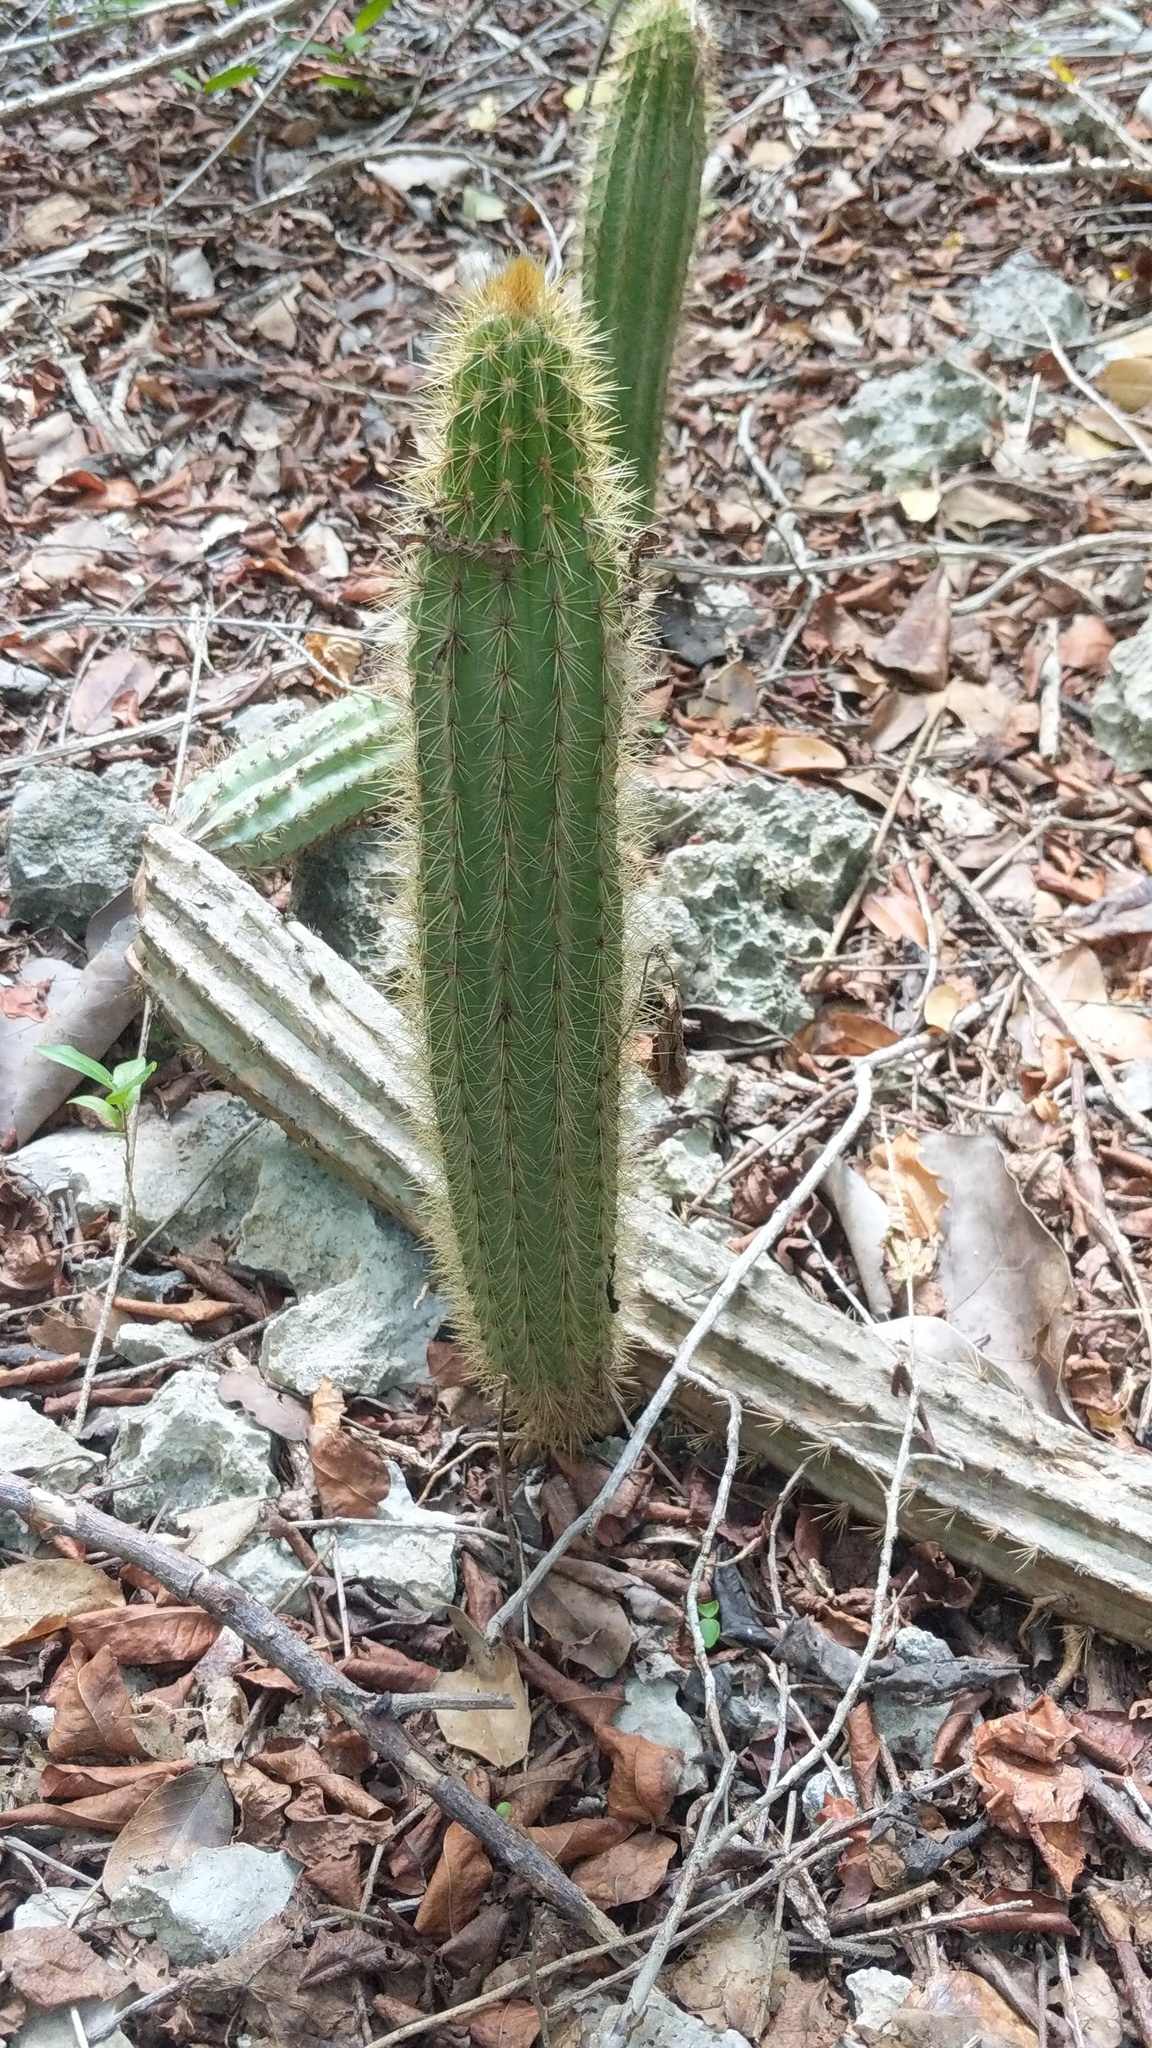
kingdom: Plantae
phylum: Tracheophyta
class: Magnoliopsida
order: Caryophyllales
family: Cactaceae
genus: Pilosocereus
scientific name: Pilosocereus jamaicensis
